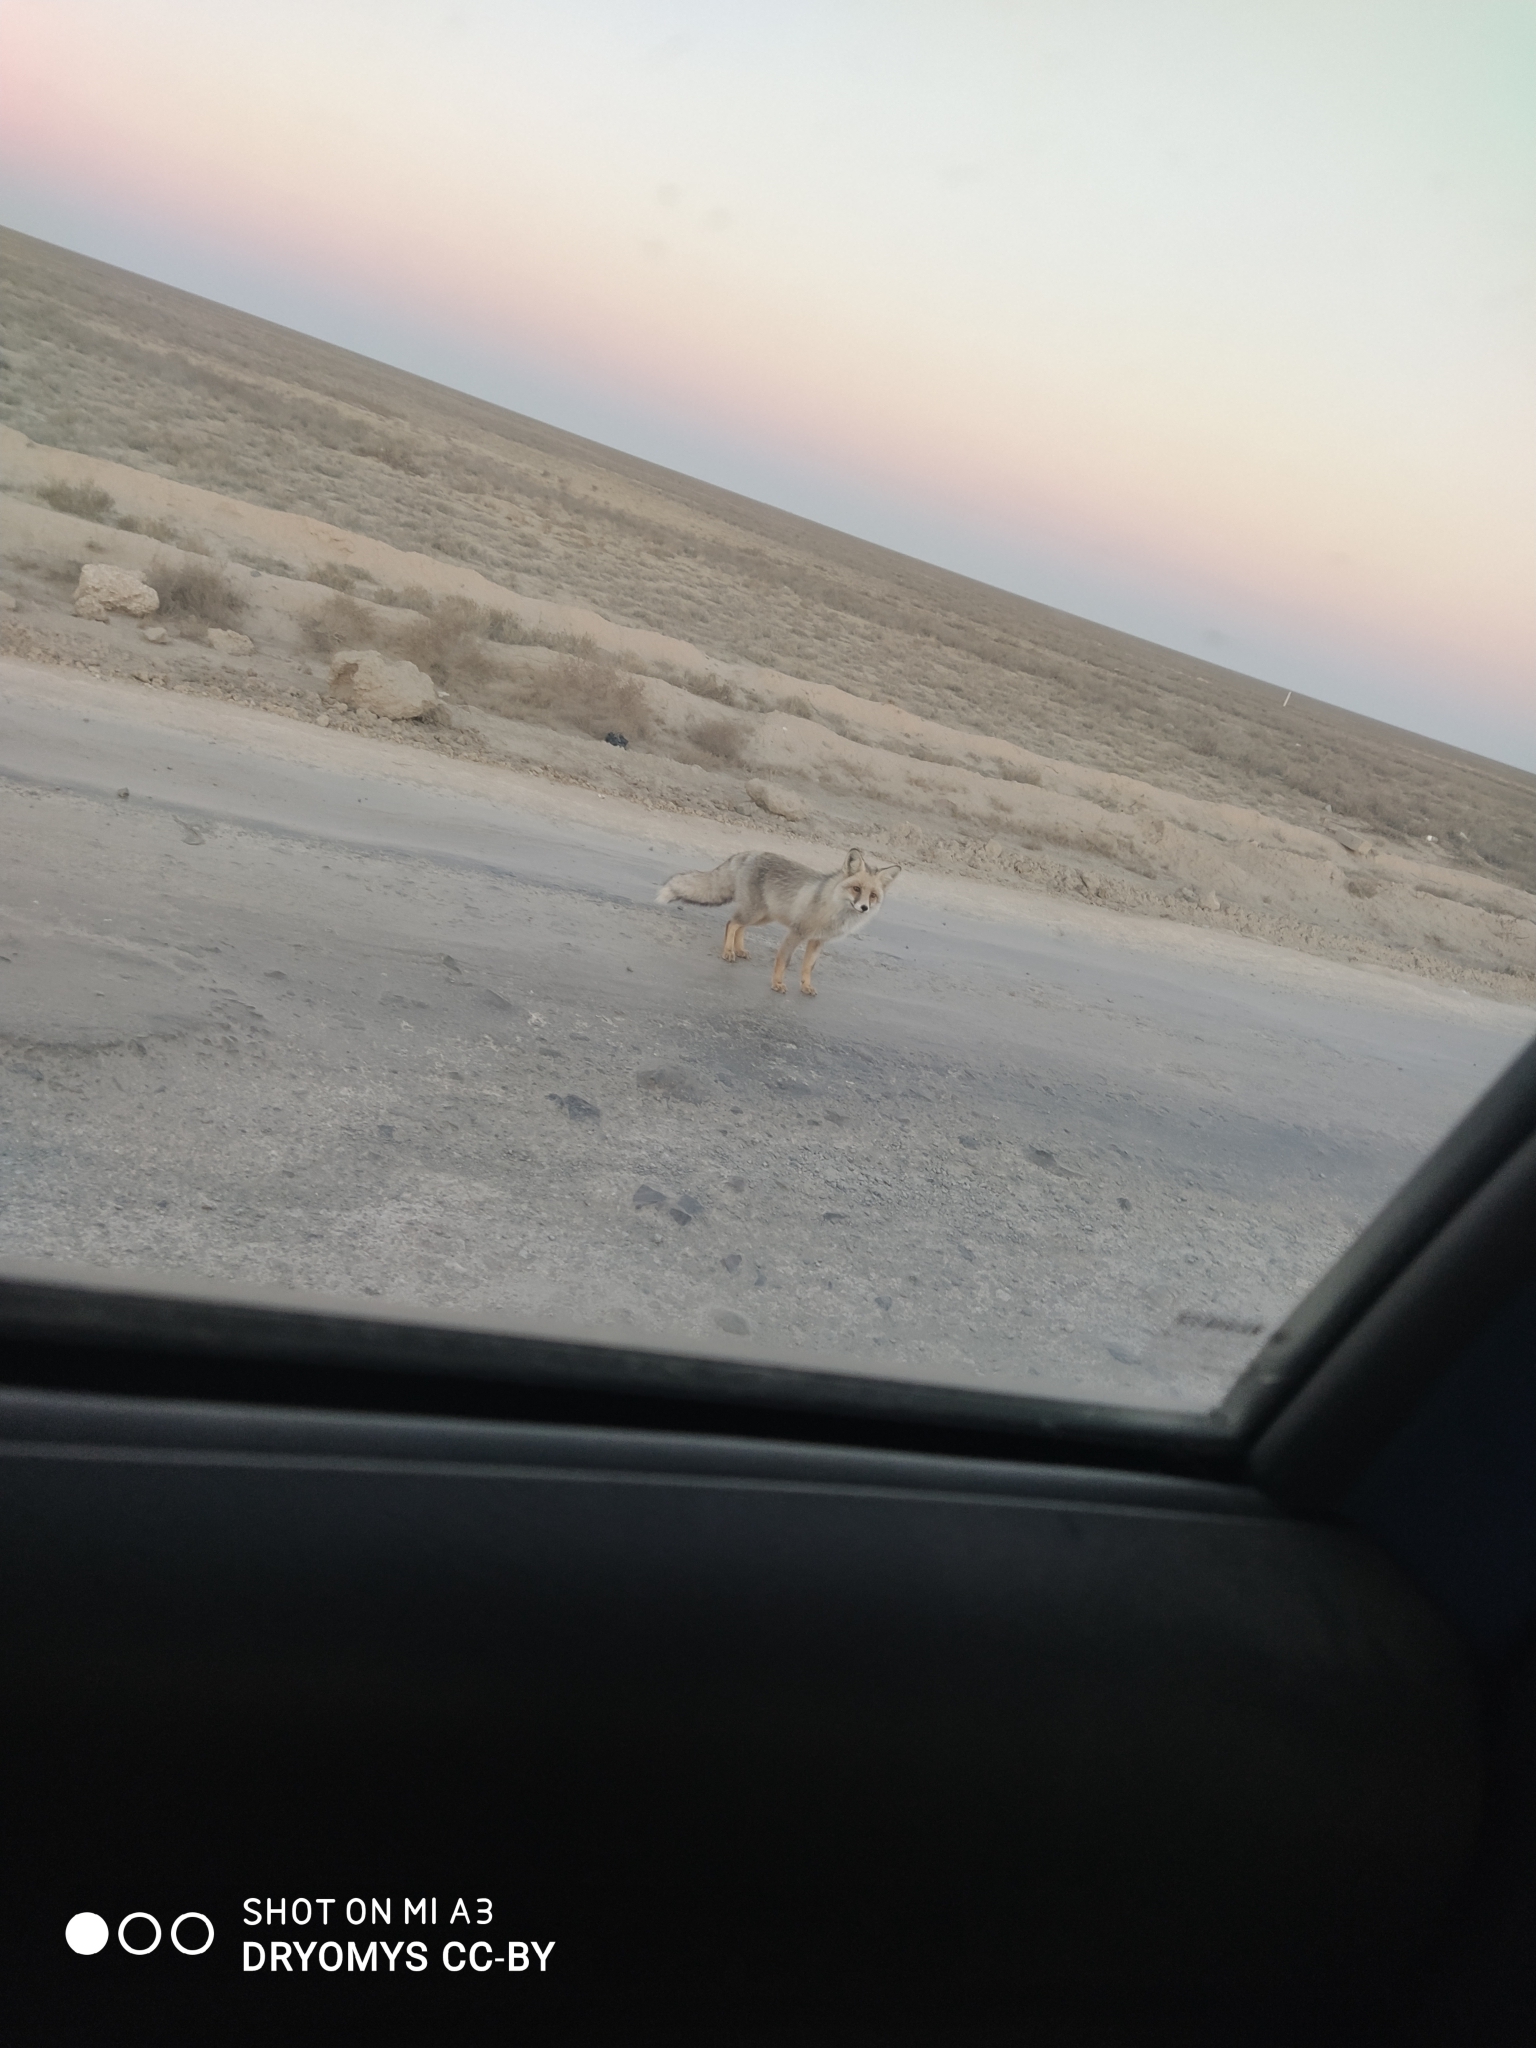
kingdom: Animalia
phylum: Chordata
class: Mammalia
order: Carnivora
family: Canidae
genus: Vulpes
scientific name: Vulpes vulpes
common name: Red fox
